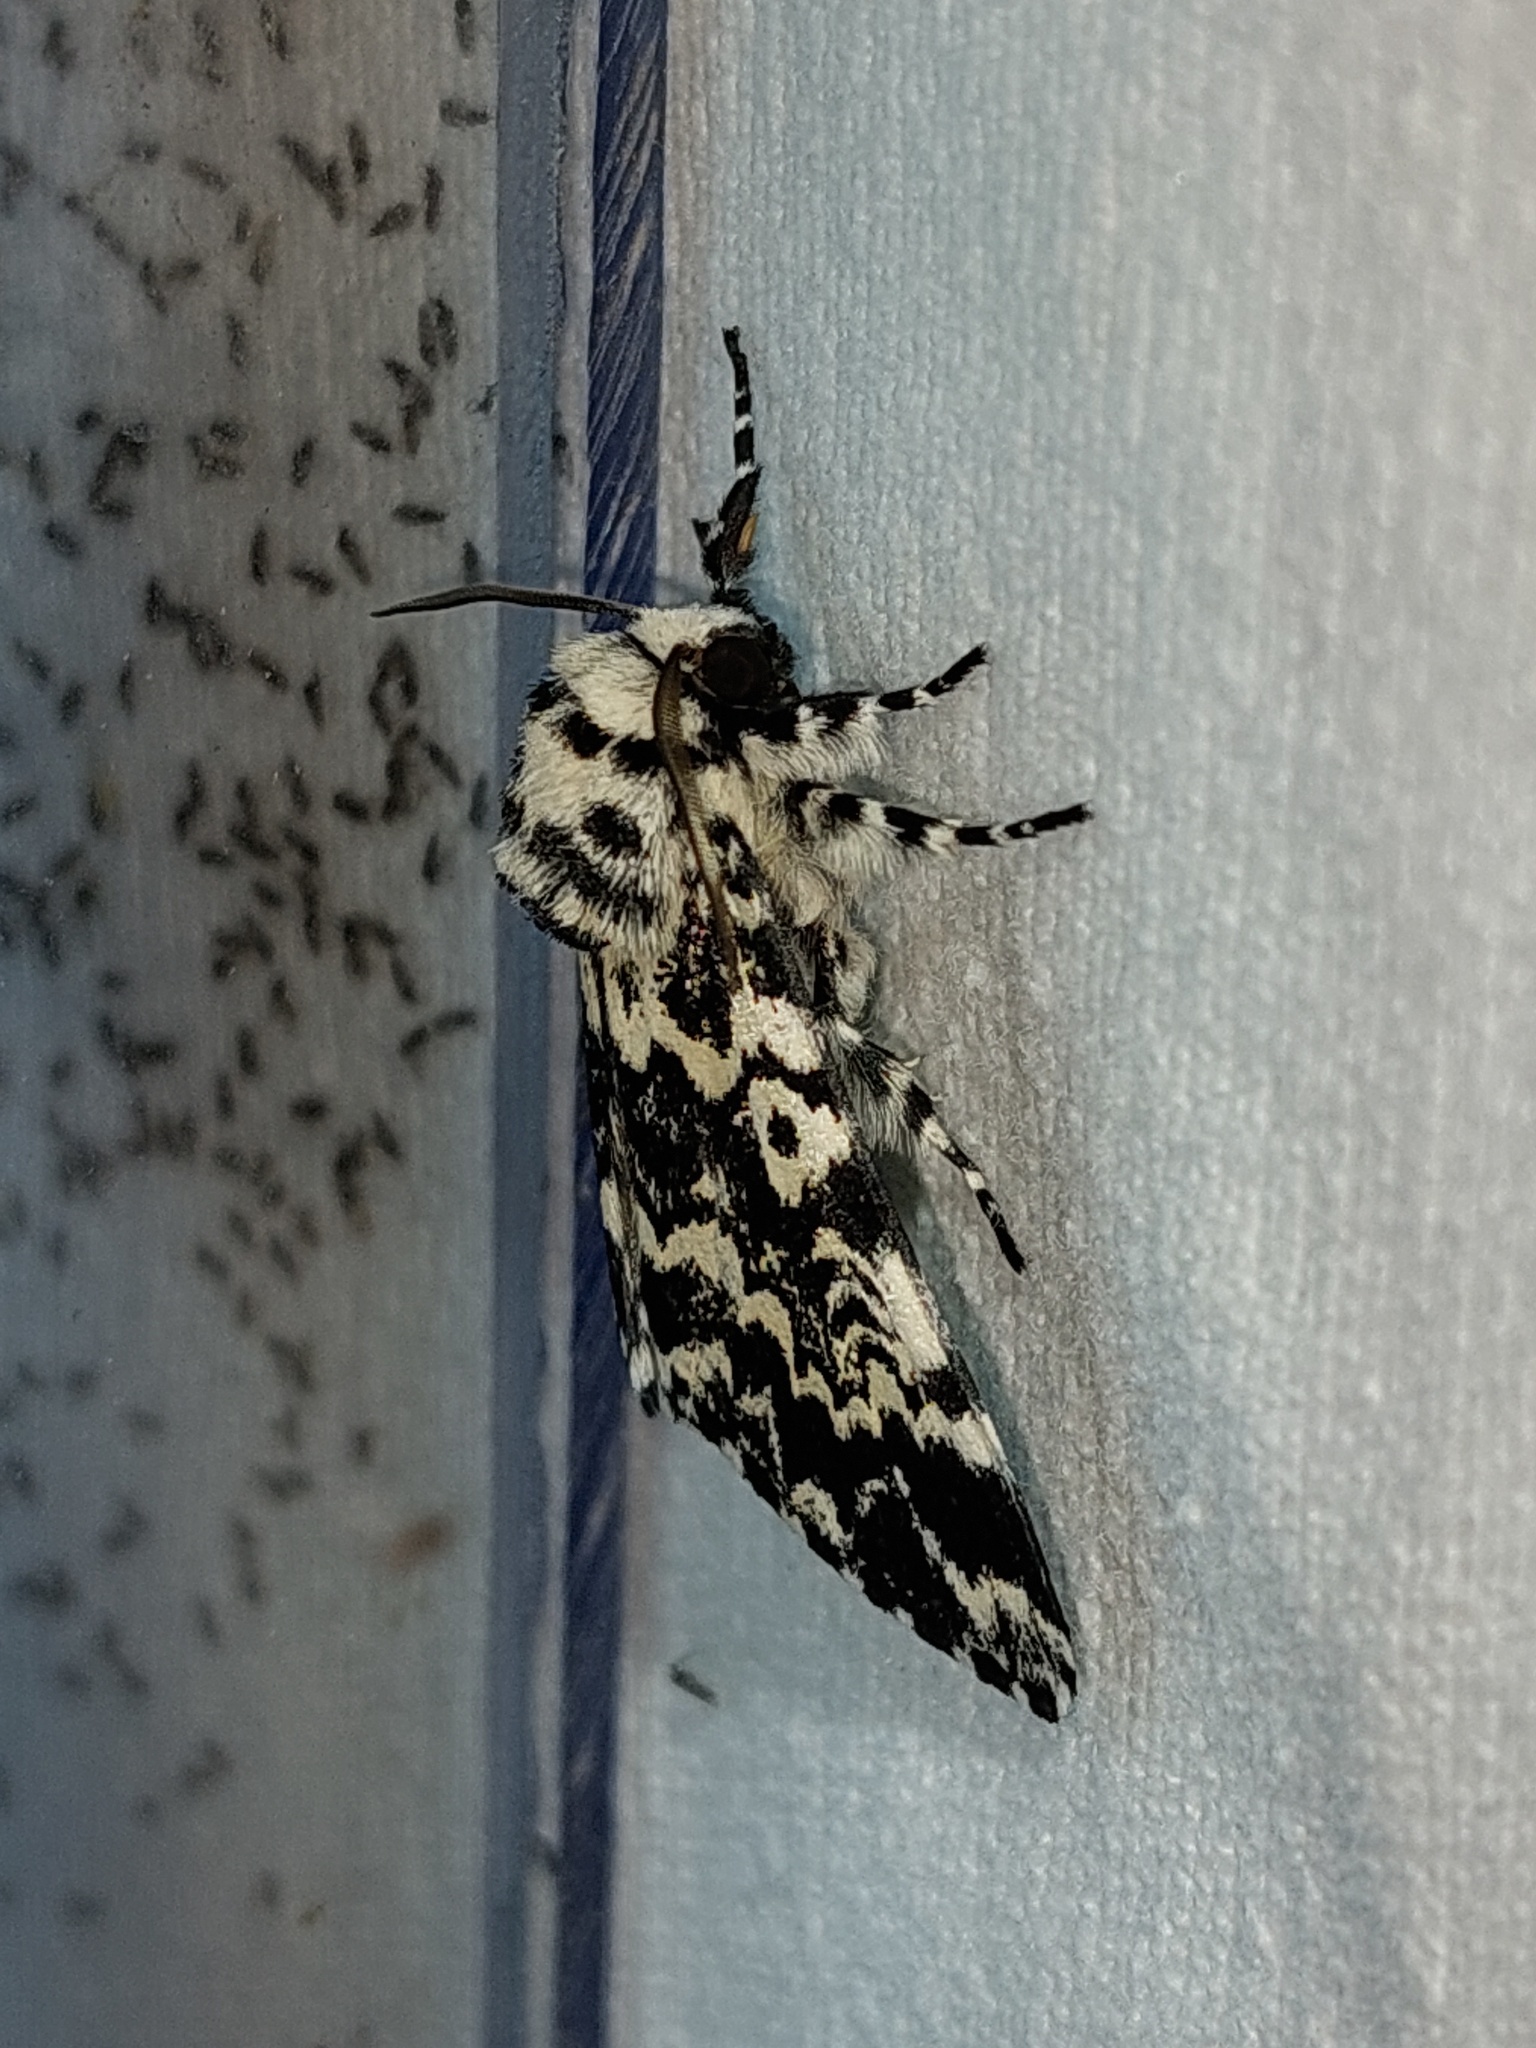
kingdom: Animalia
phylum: Arthropoda
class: Insecta
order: Lepidoptera
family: Noctuidae
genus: Panthea
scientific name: Panthea coenobita
